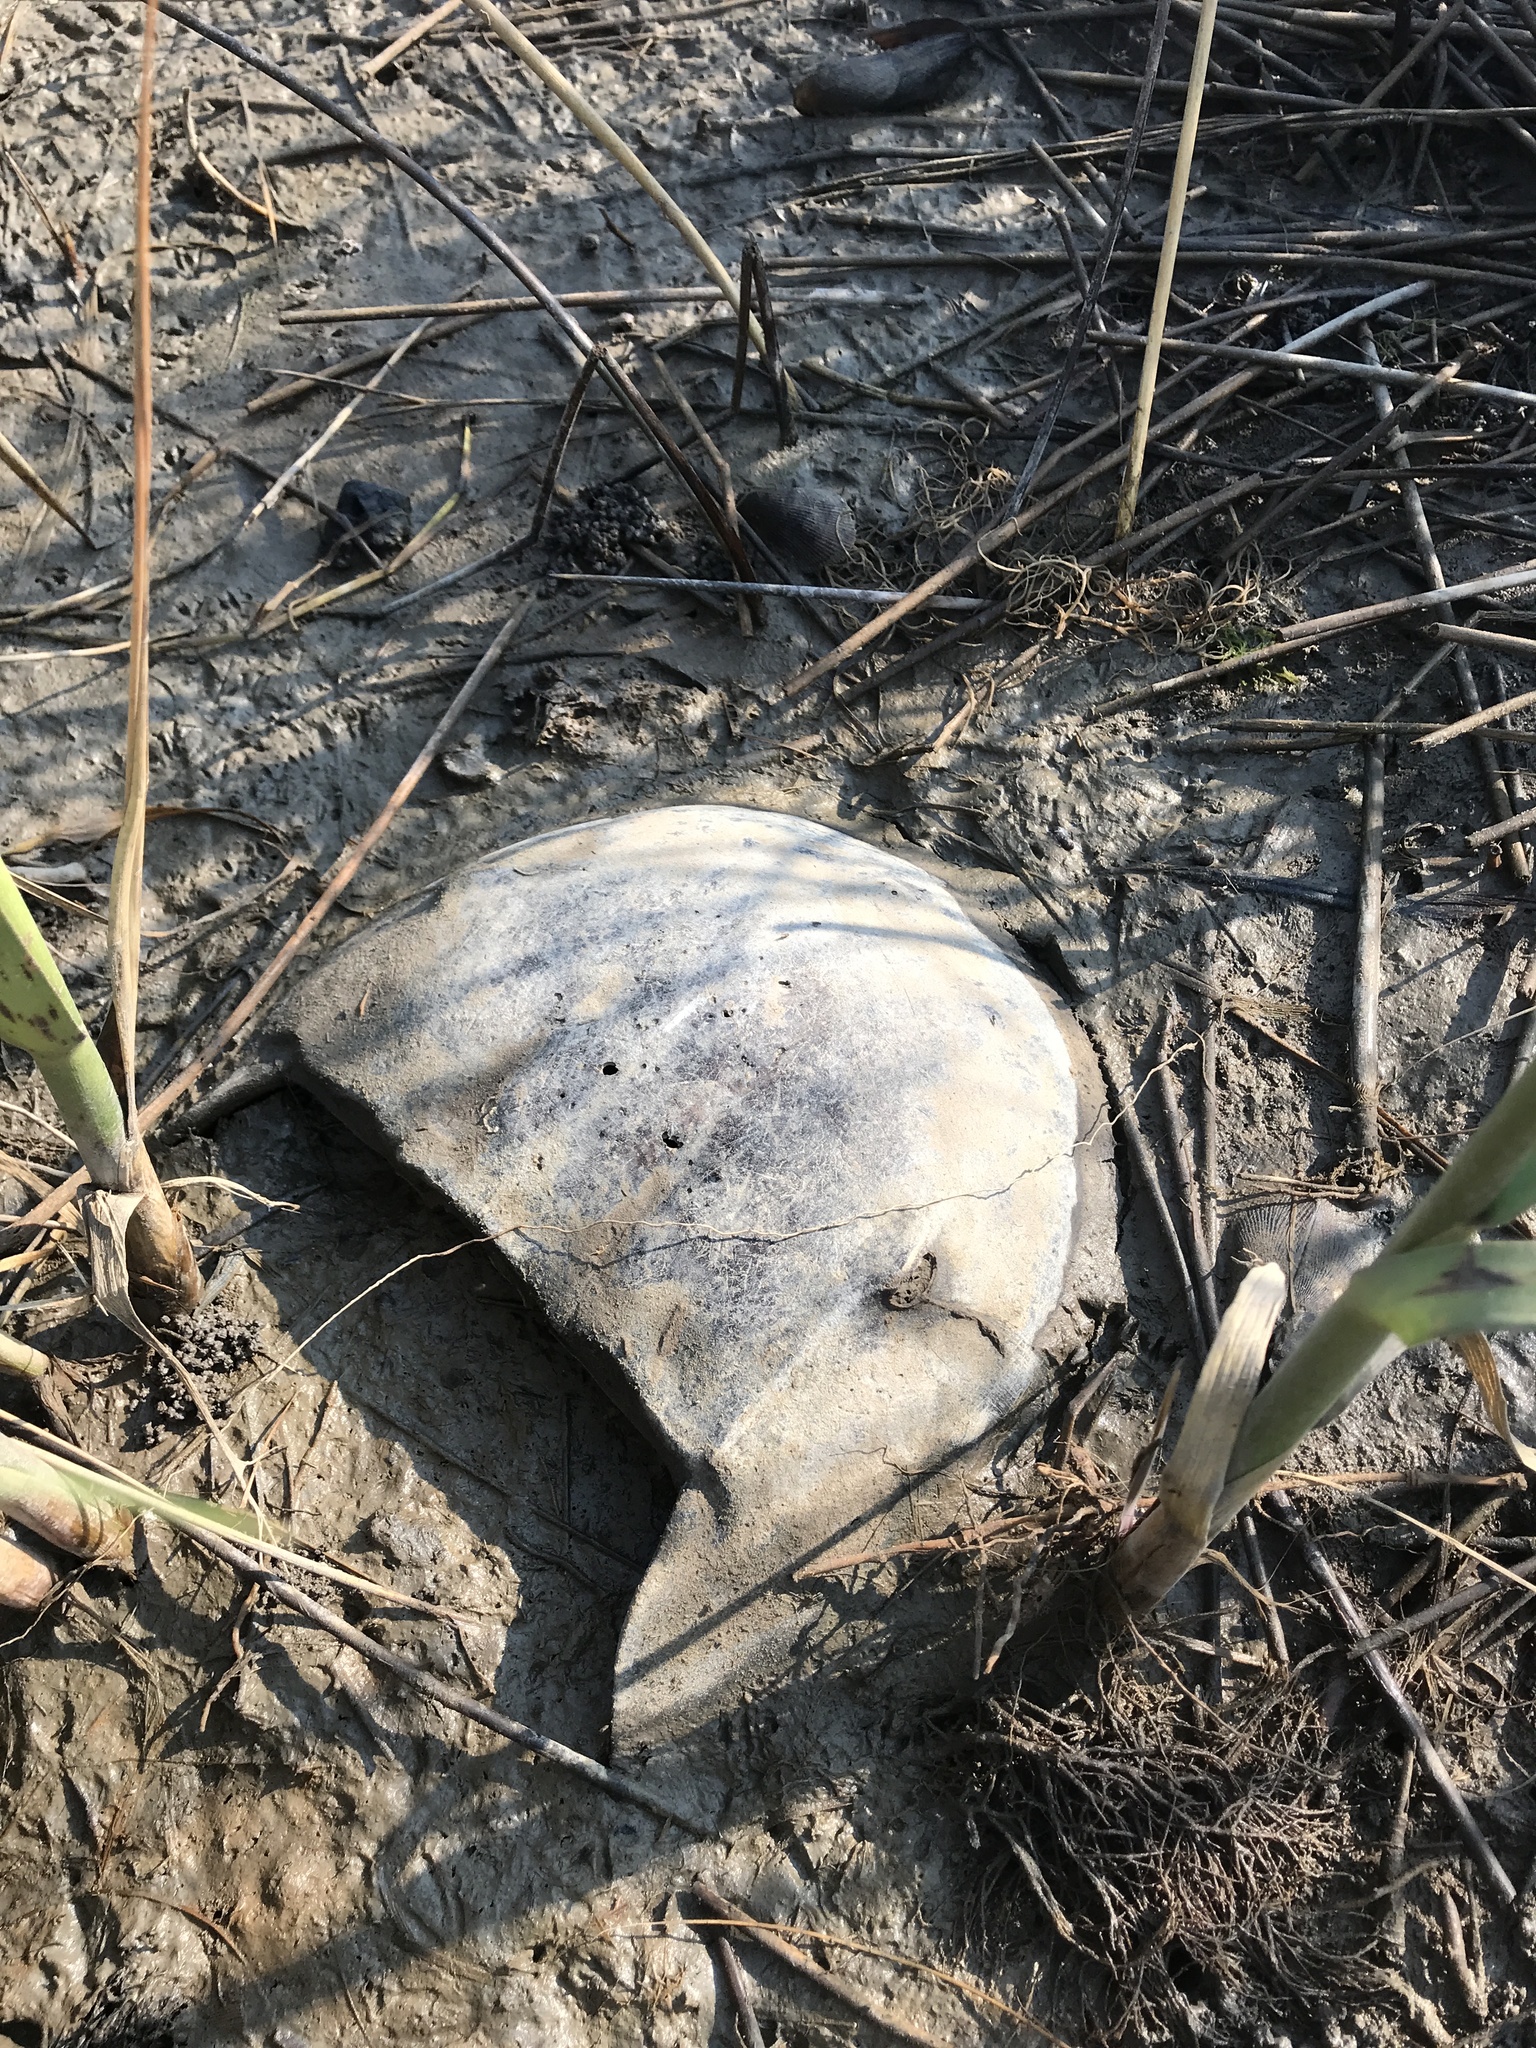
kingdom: Animalia
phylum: Arthropoda
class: Merostomata
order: Xiphosurida
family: Limulidae
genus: Limulus
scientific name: Limulus polyphemus
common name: Horseshoe crab
